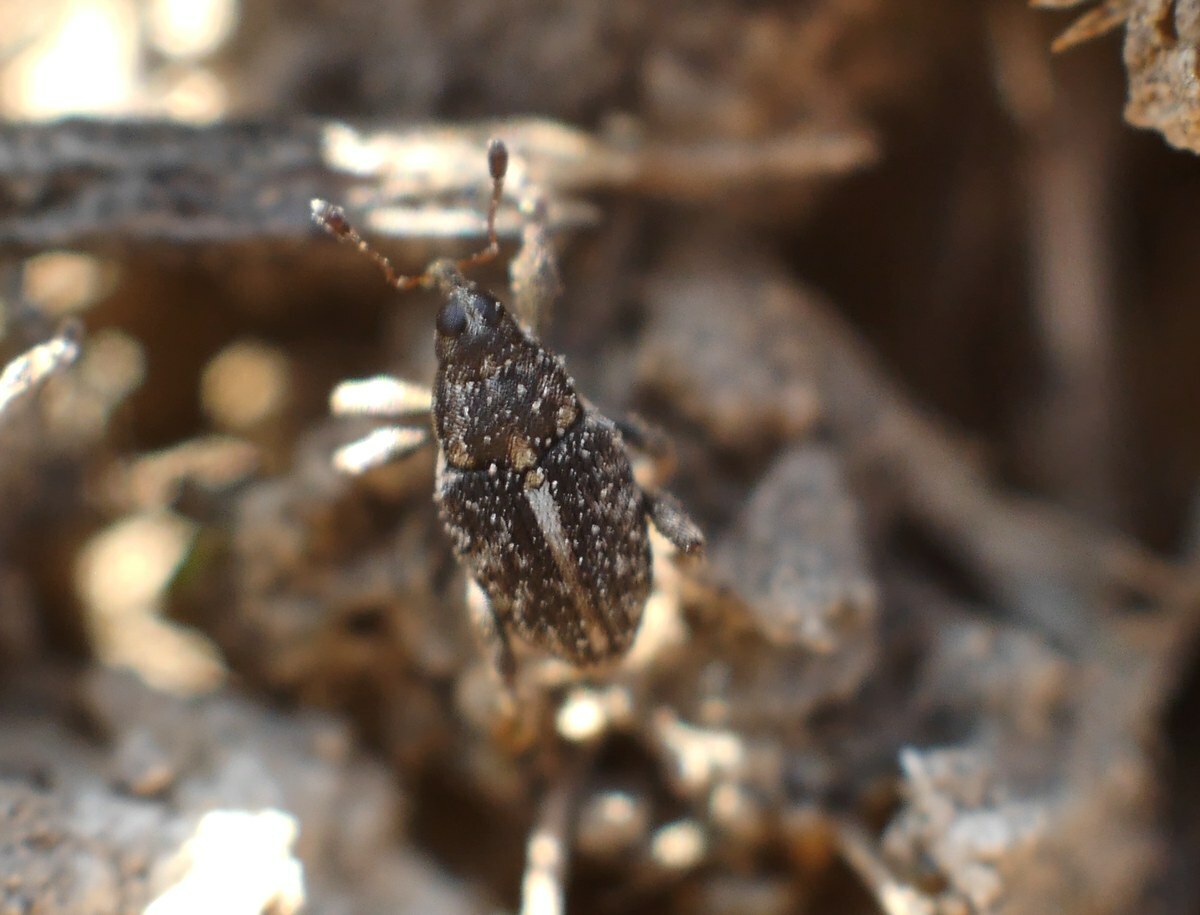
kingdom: Animalia
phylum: Arthropoda
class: Insecta
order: Coleoptera
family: Curculionidae
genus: Poecilma
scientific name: Poecilma
